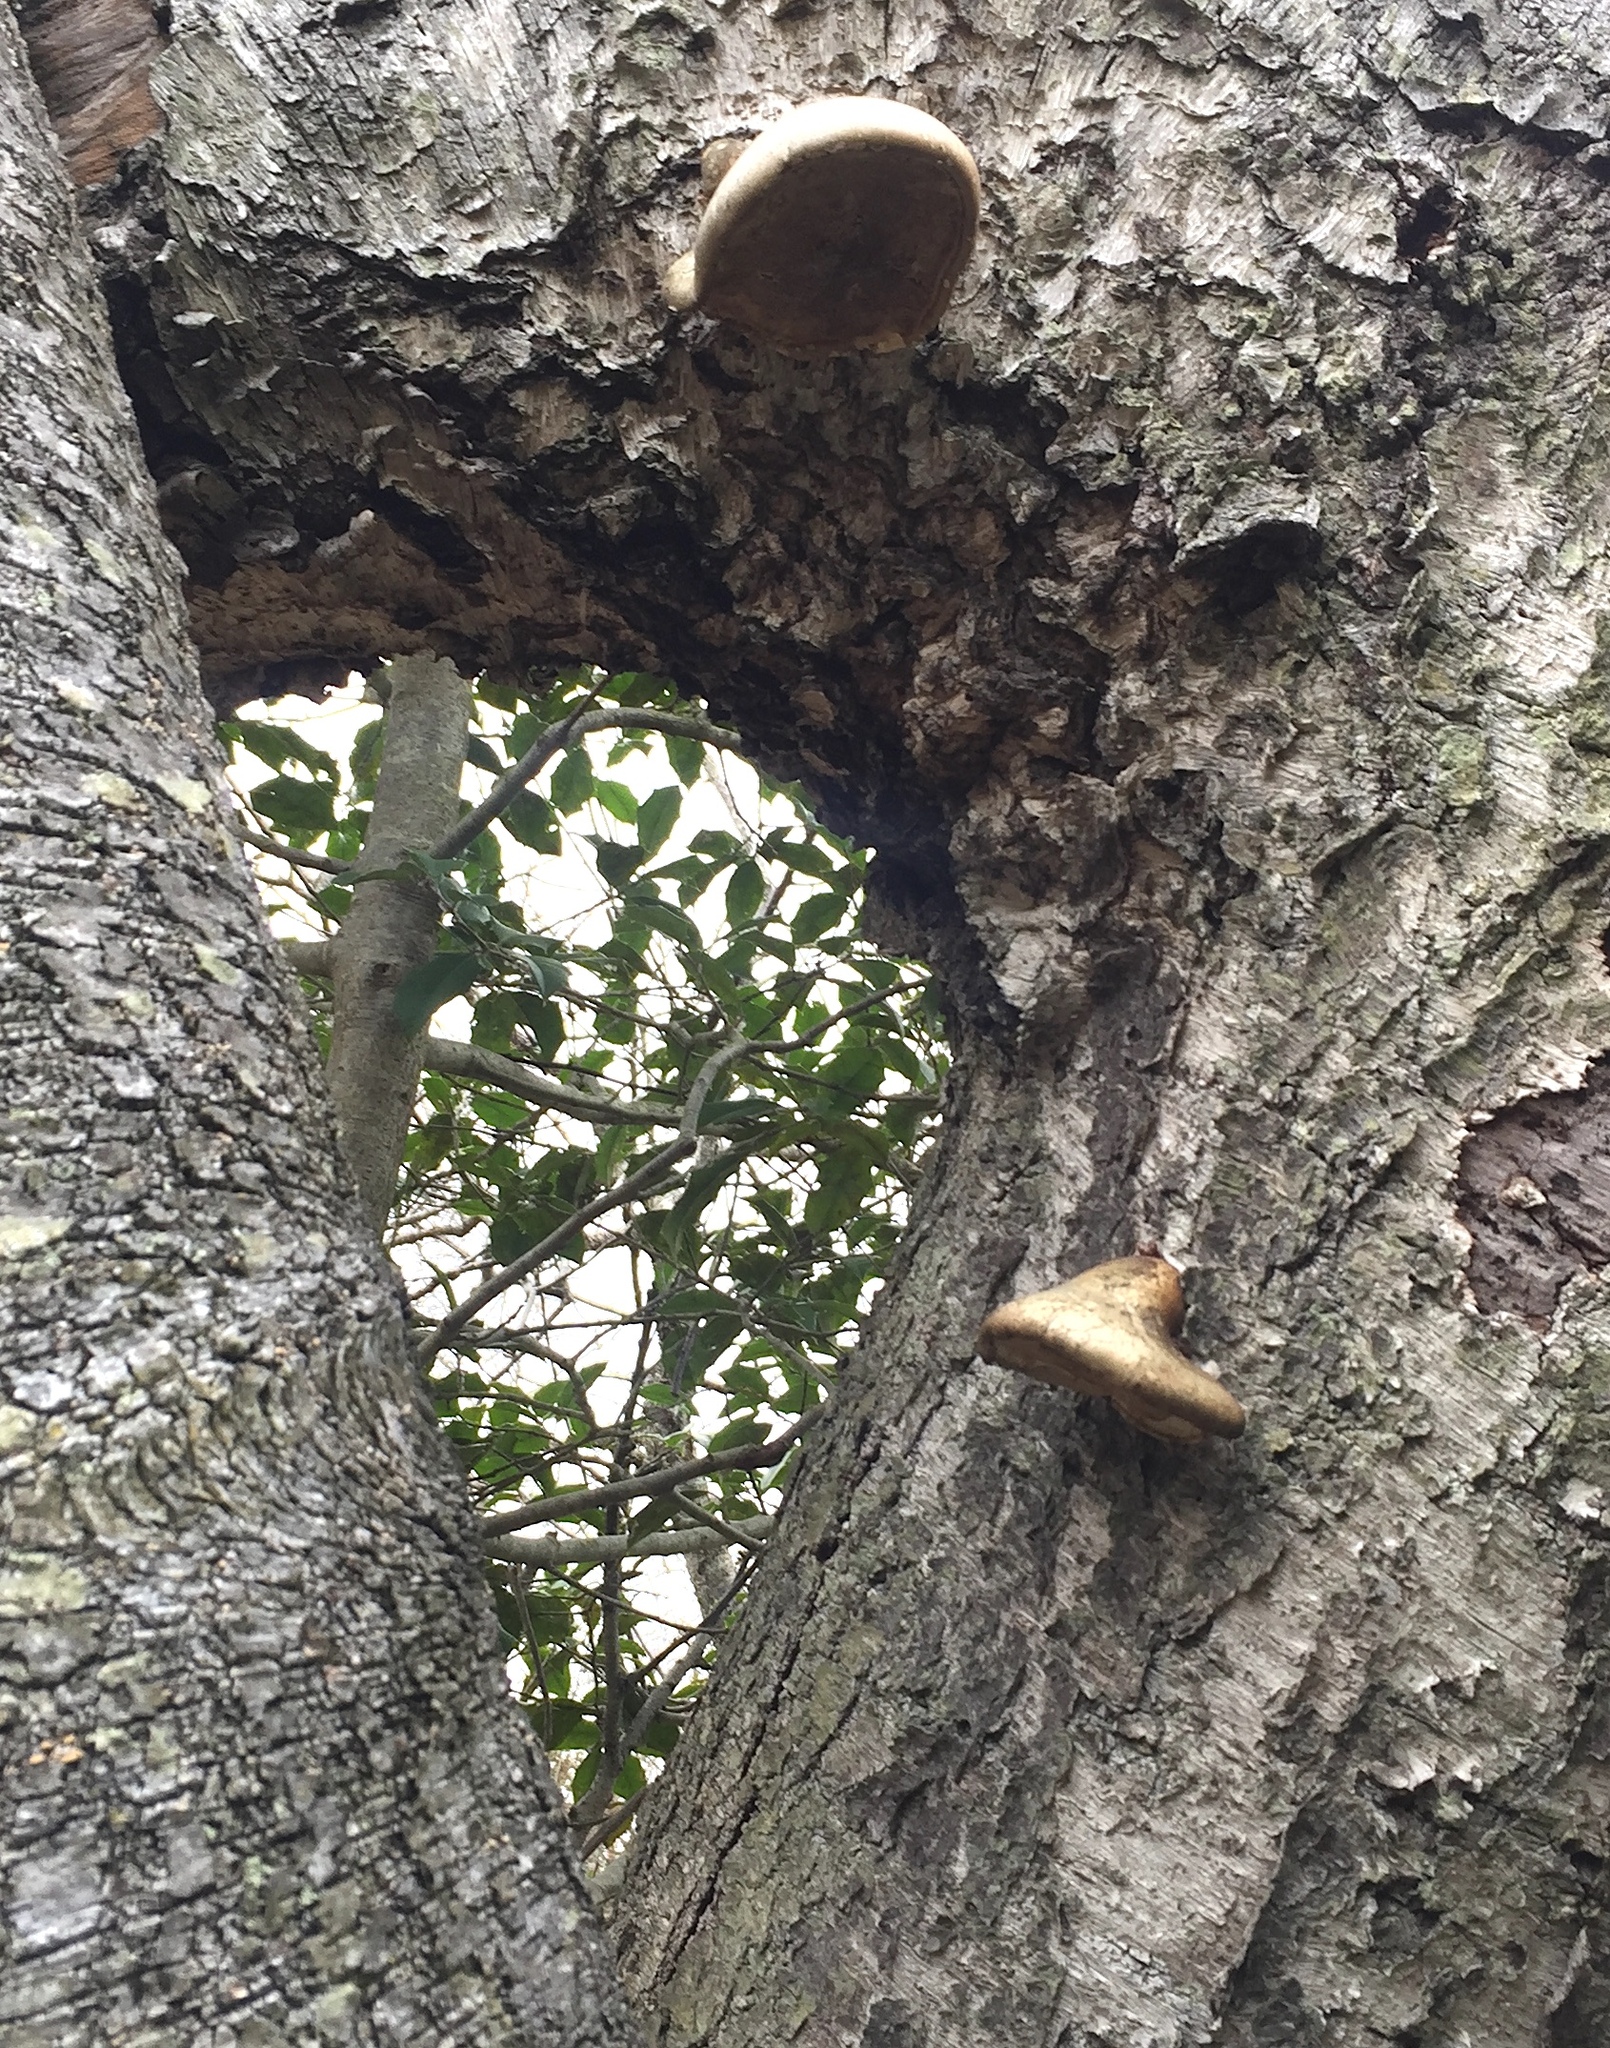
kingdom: Fungi
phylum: Basidiomycota
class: Agaricomycetes
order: Polyporales
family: Fomitopsidaceae
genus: Fomitopsis
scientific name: Fomitopsis betulina
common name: Birch polypore
